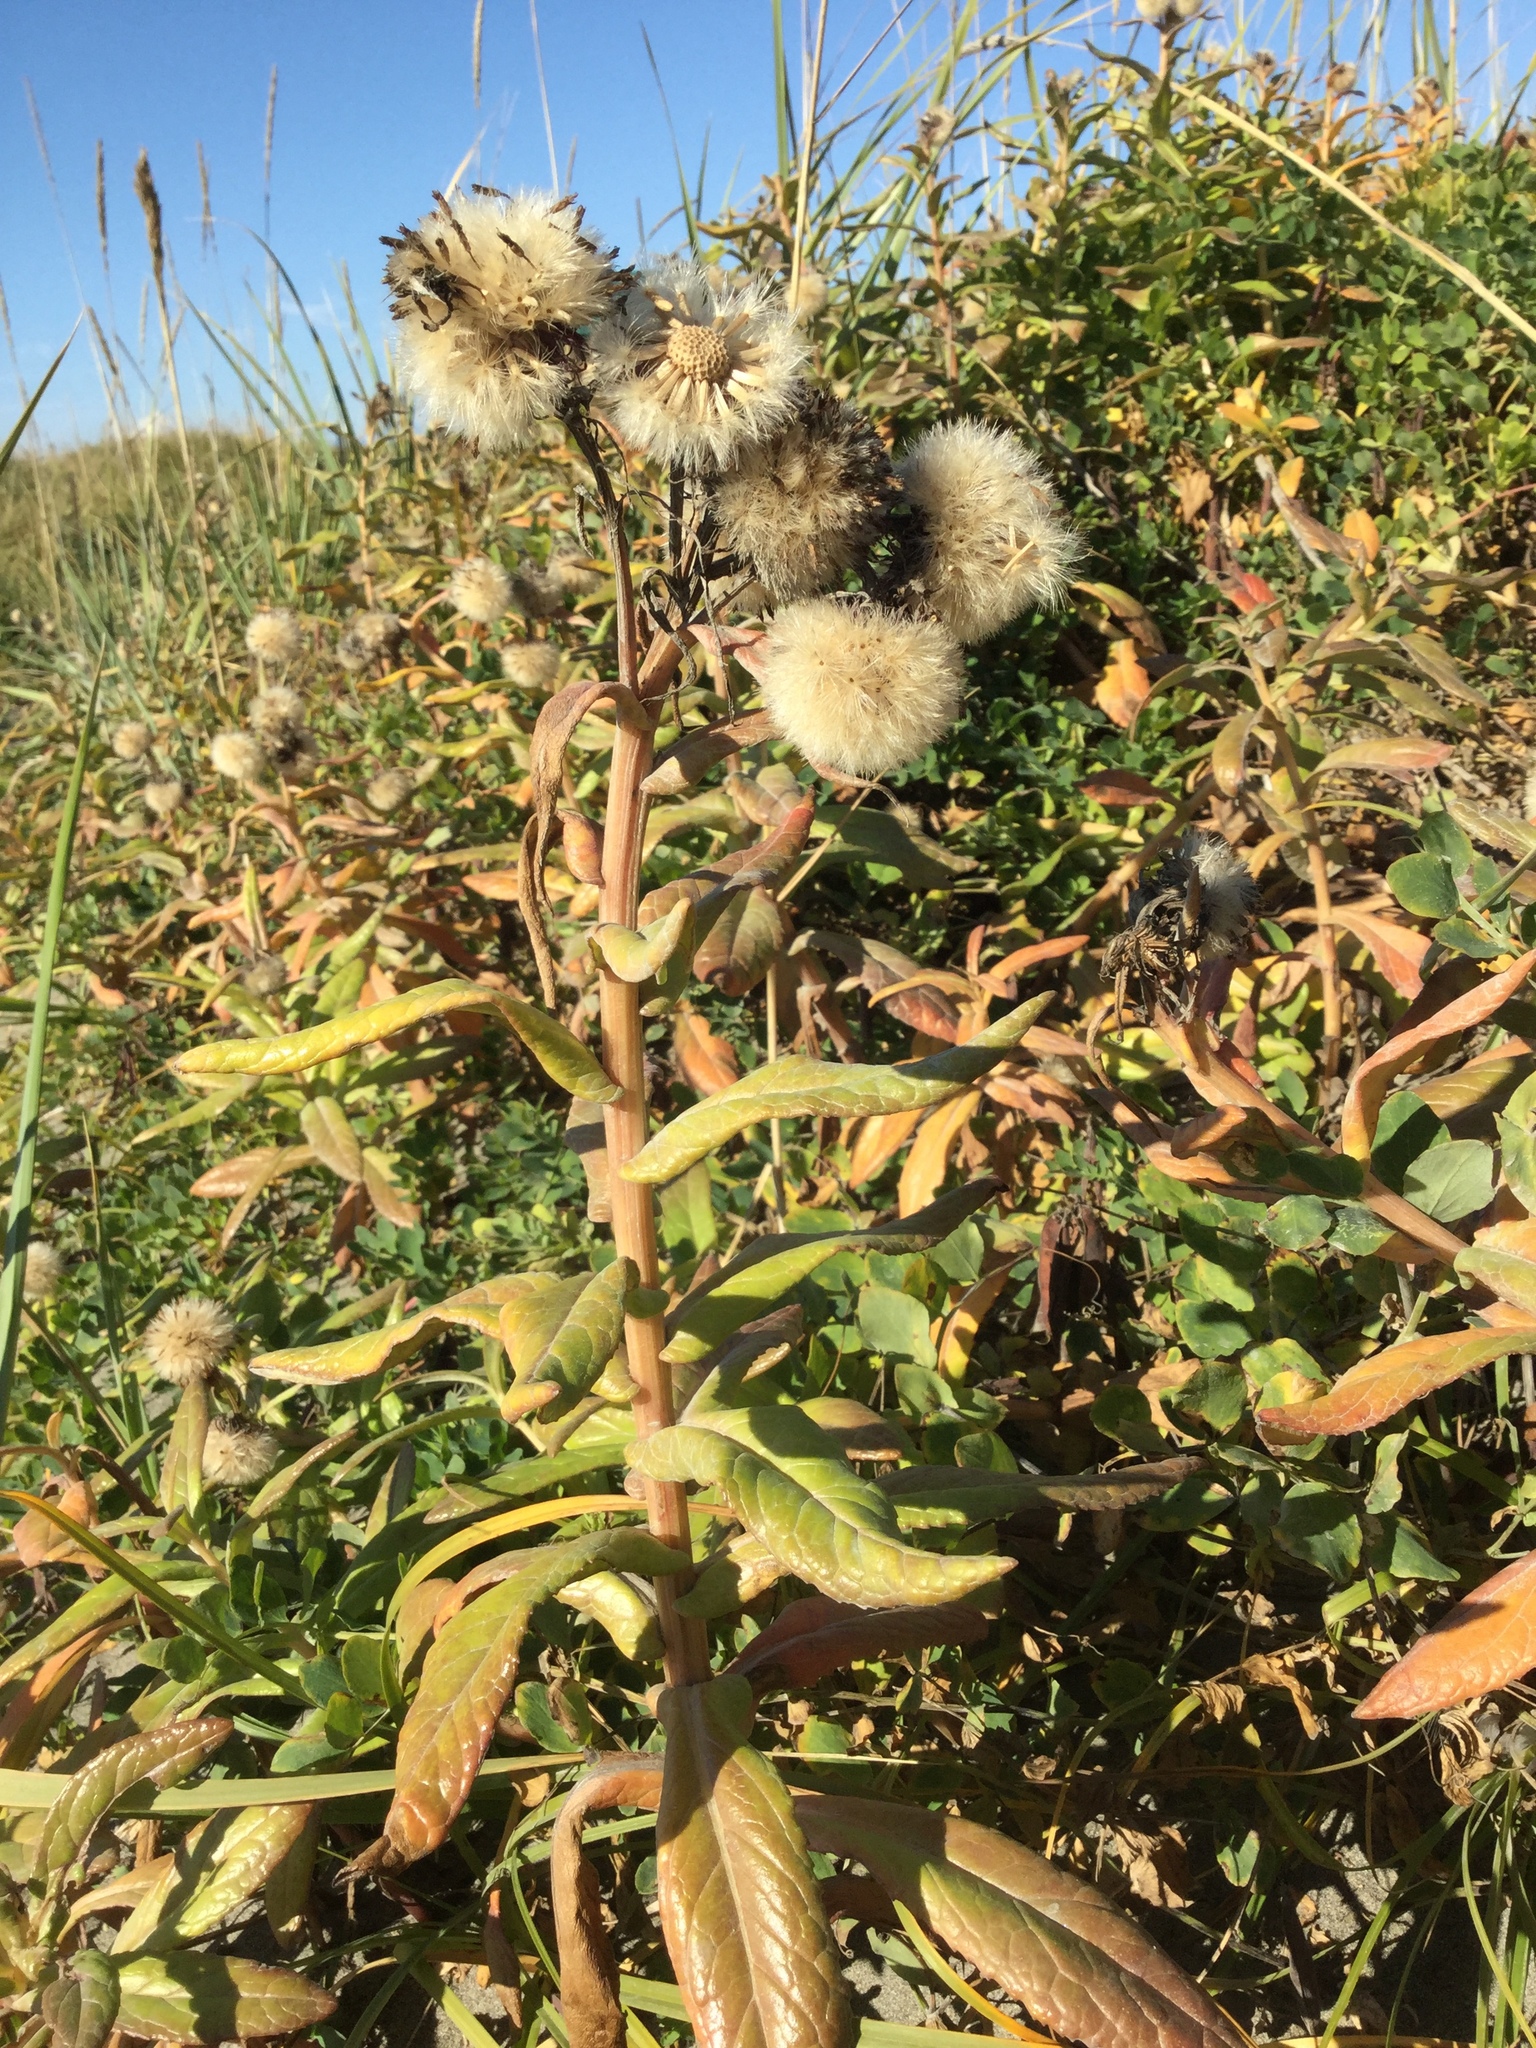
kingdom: Plantae
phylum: Tracheophyta
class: Magnoliopsida
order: Asterales
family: Asteraceae
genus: Jacobaea
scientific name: Jacobaea pseudoarnica
